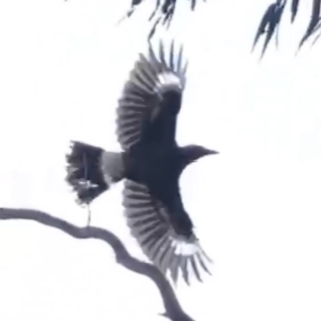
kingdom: Animalia
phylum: Chordata
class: Aves
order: Passeriformes
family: Cracticidae
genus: Strepera
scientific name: Strepera graculina
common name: Pied currawong
